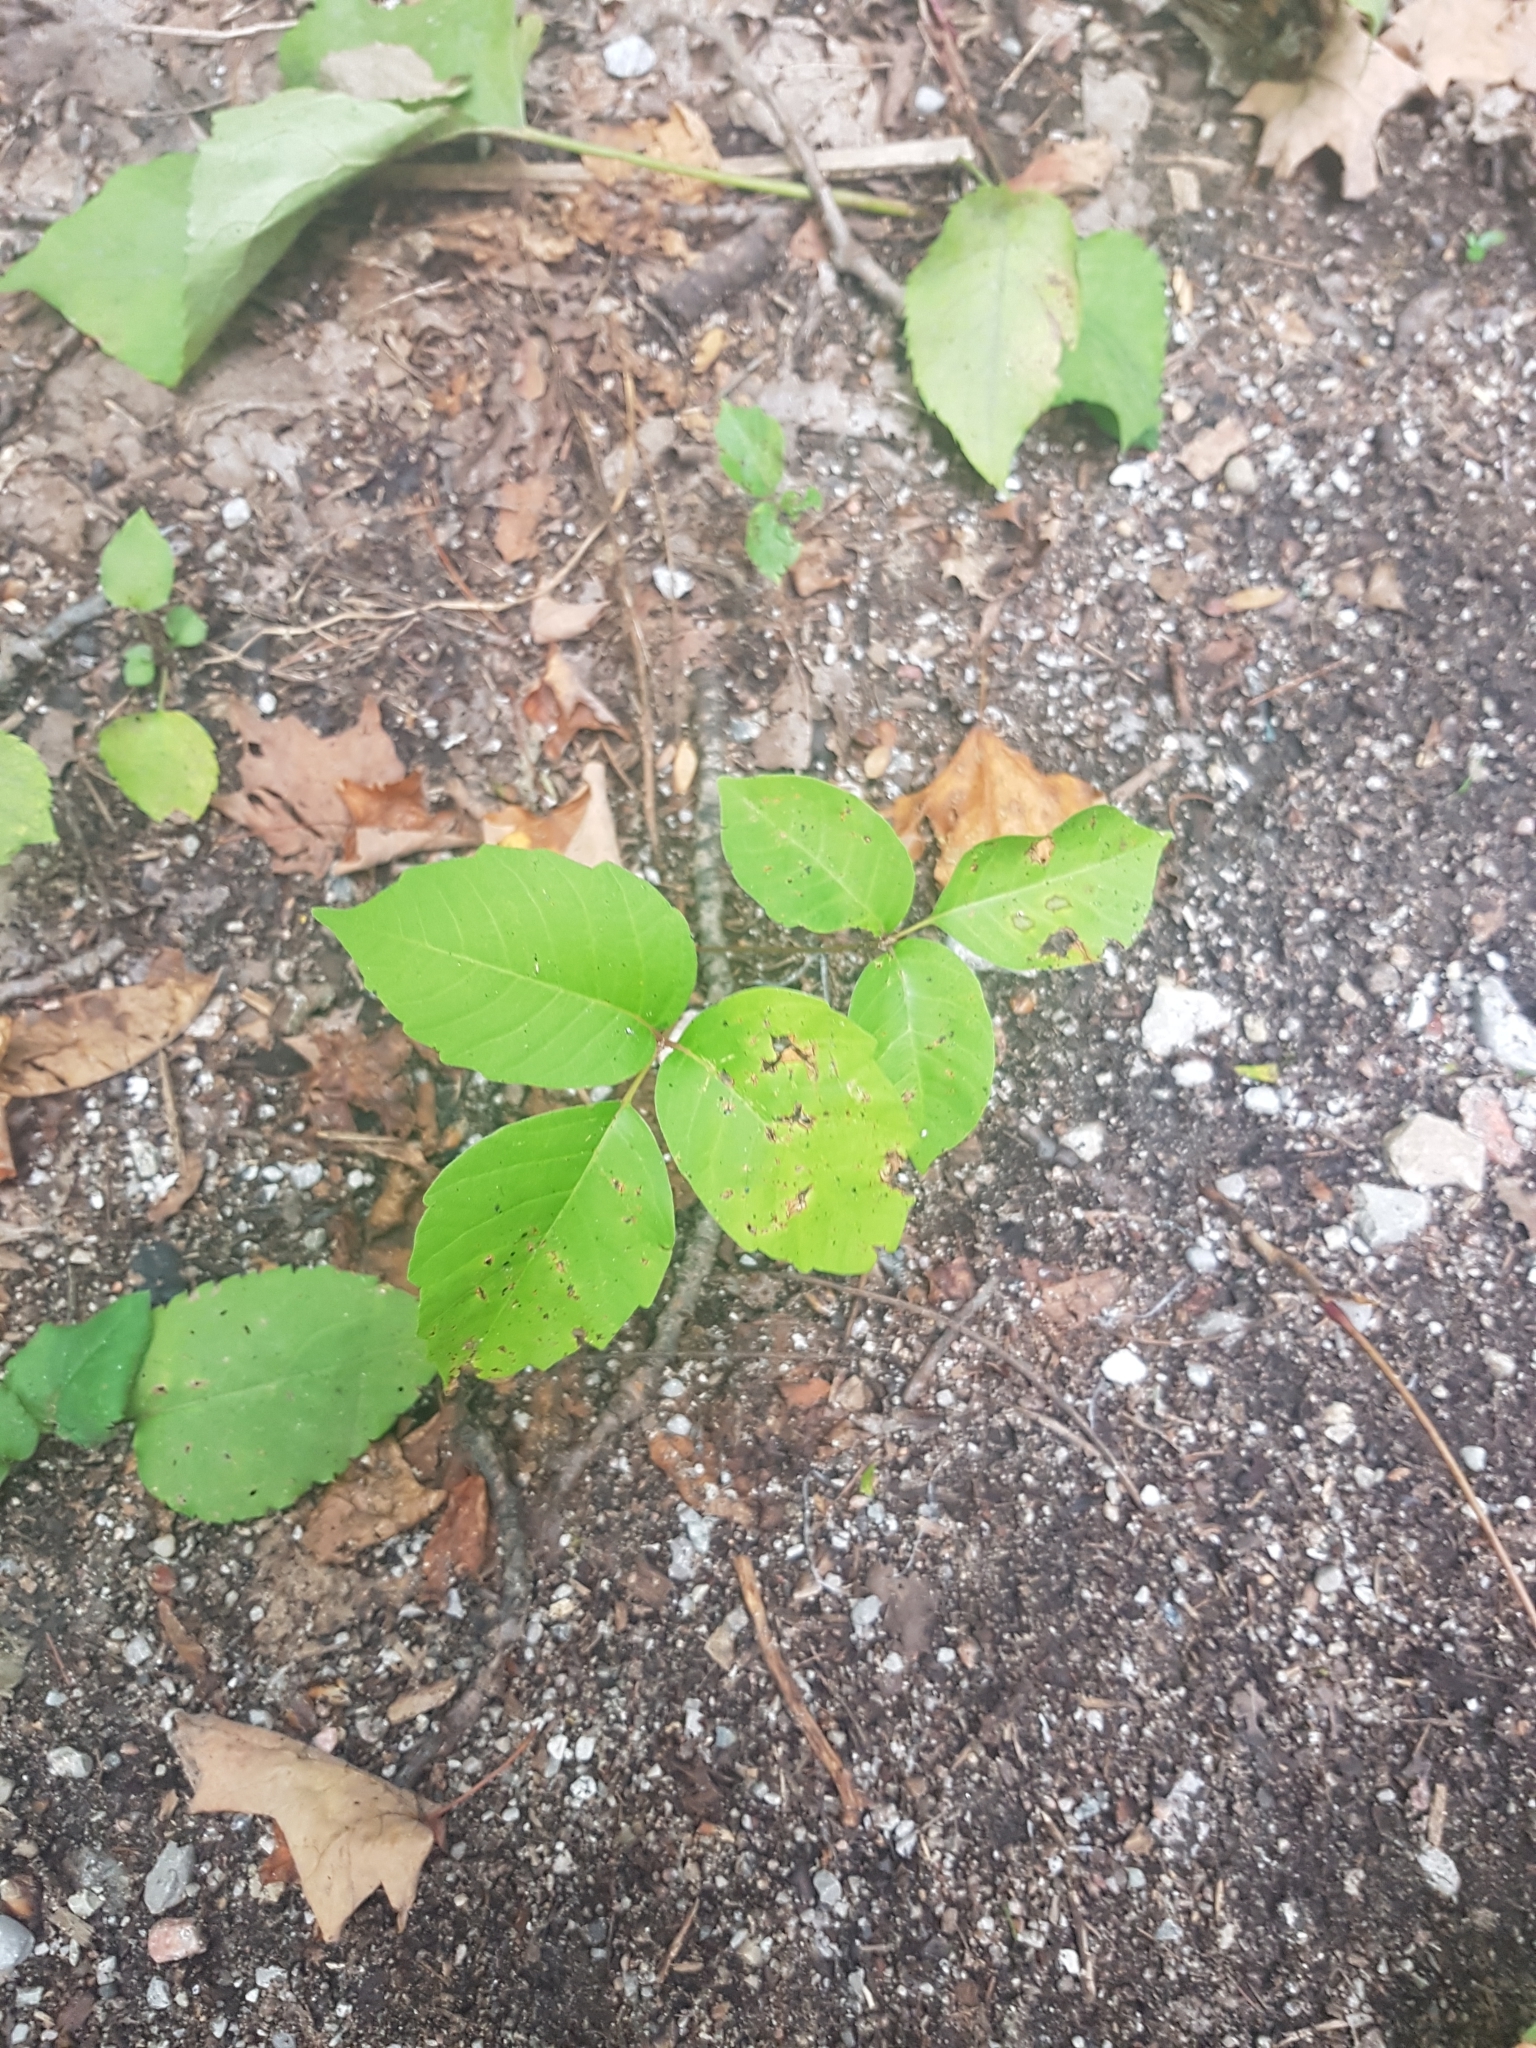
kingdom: Plantae
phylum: Tracheophyta
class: Magnoliopsida
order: Sapindales
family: Anacardiaceae
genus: Toxicodendron
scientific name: Toxicodendron rydbergii
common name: Rydberg's poison-ivy
